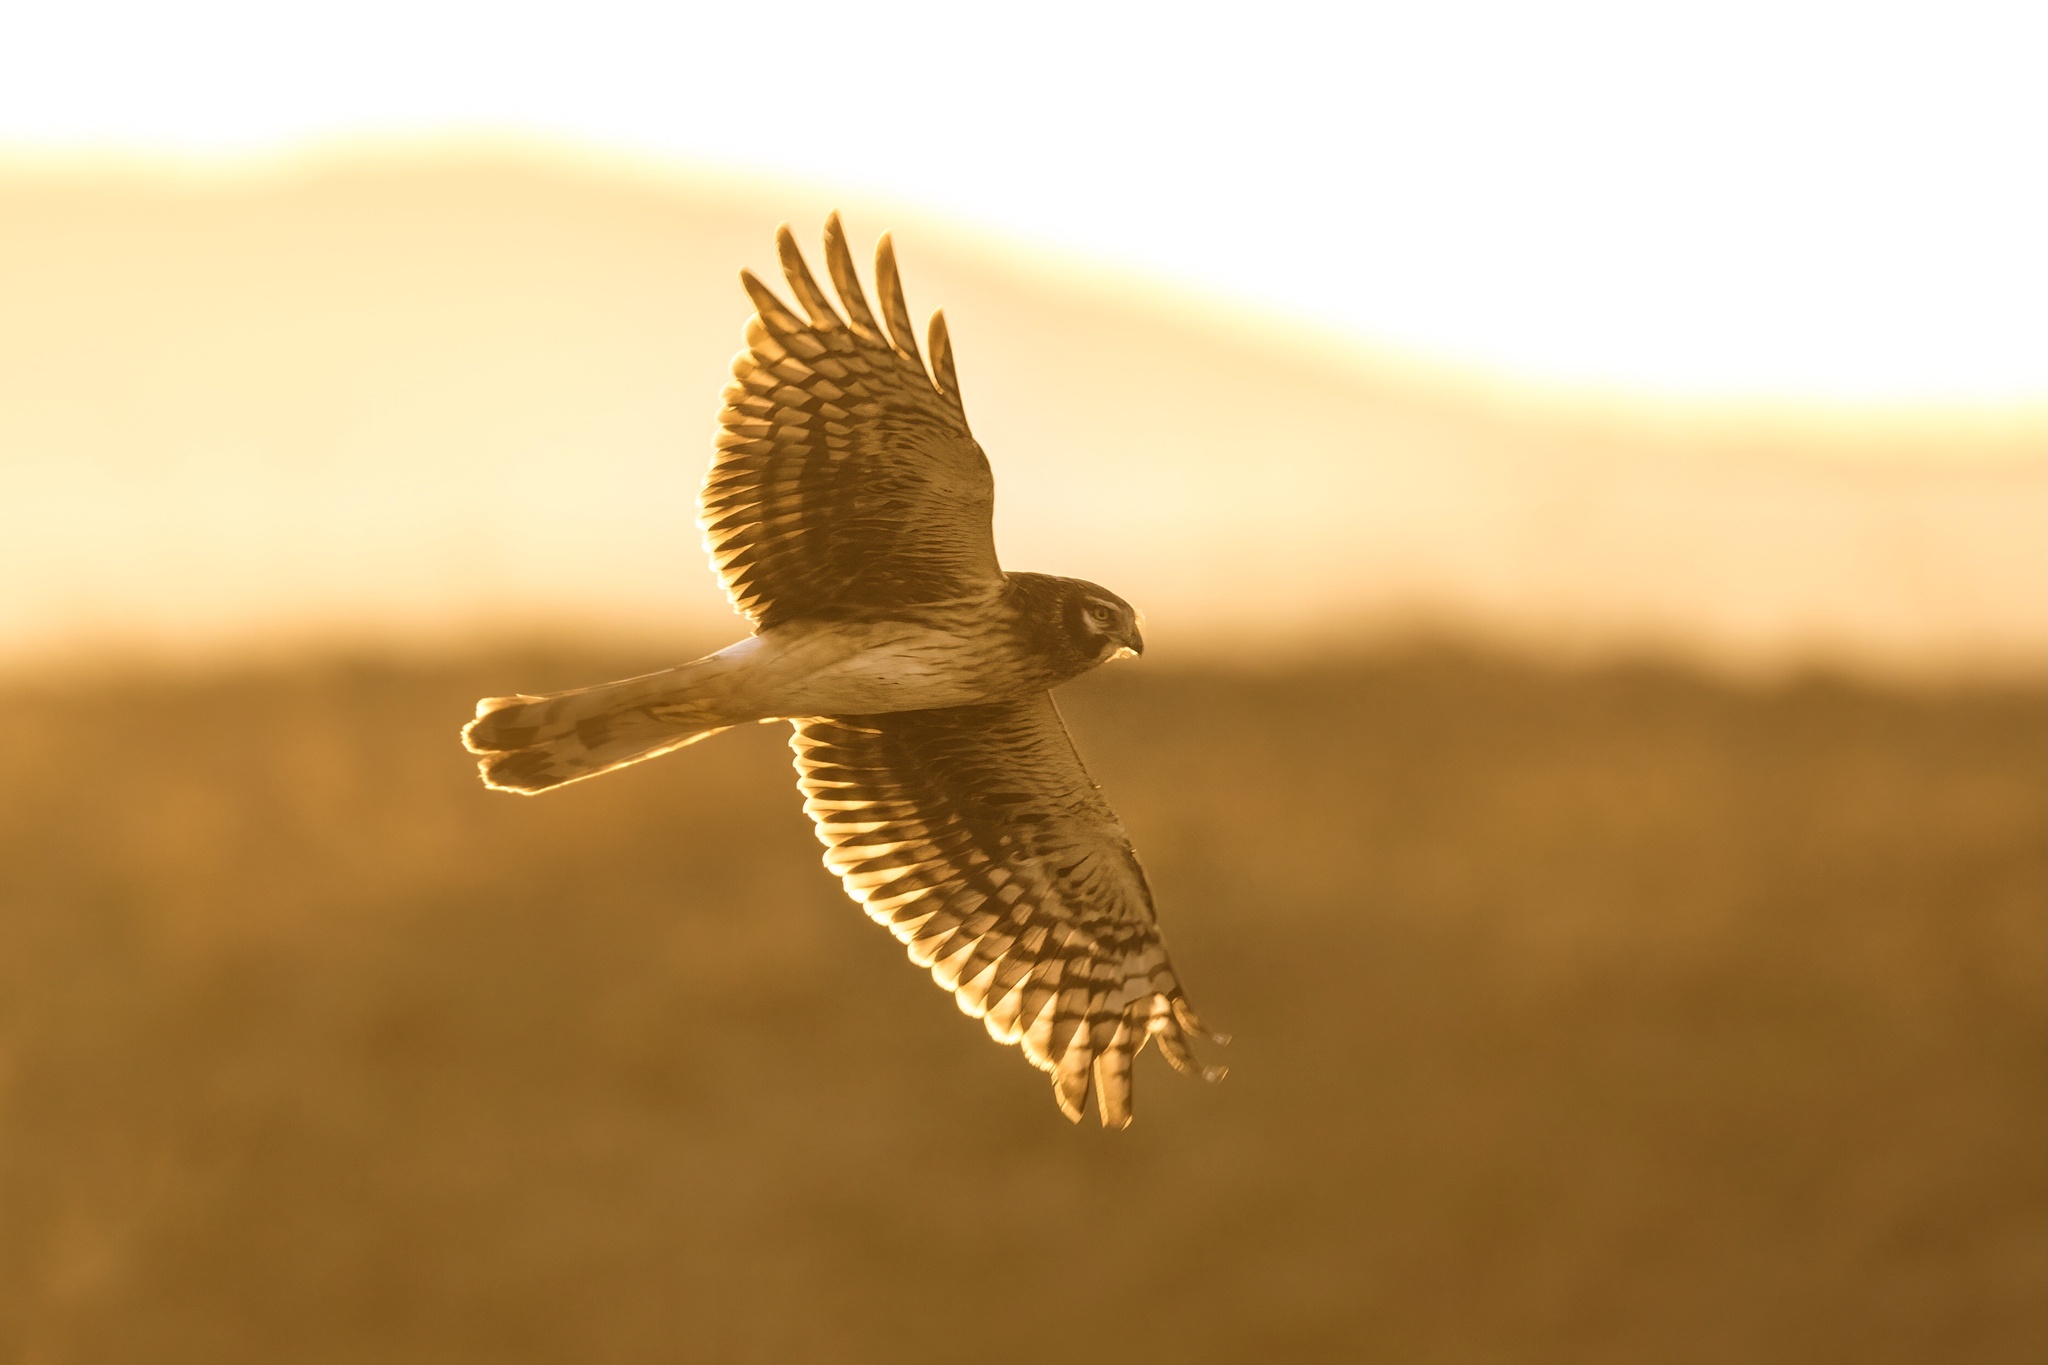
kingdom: Animalia
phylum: Chordata
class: Aves
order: Accipitriformes
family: Accipitridae
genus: Circus
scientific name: Circus cyaneus
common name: Hen harrier
